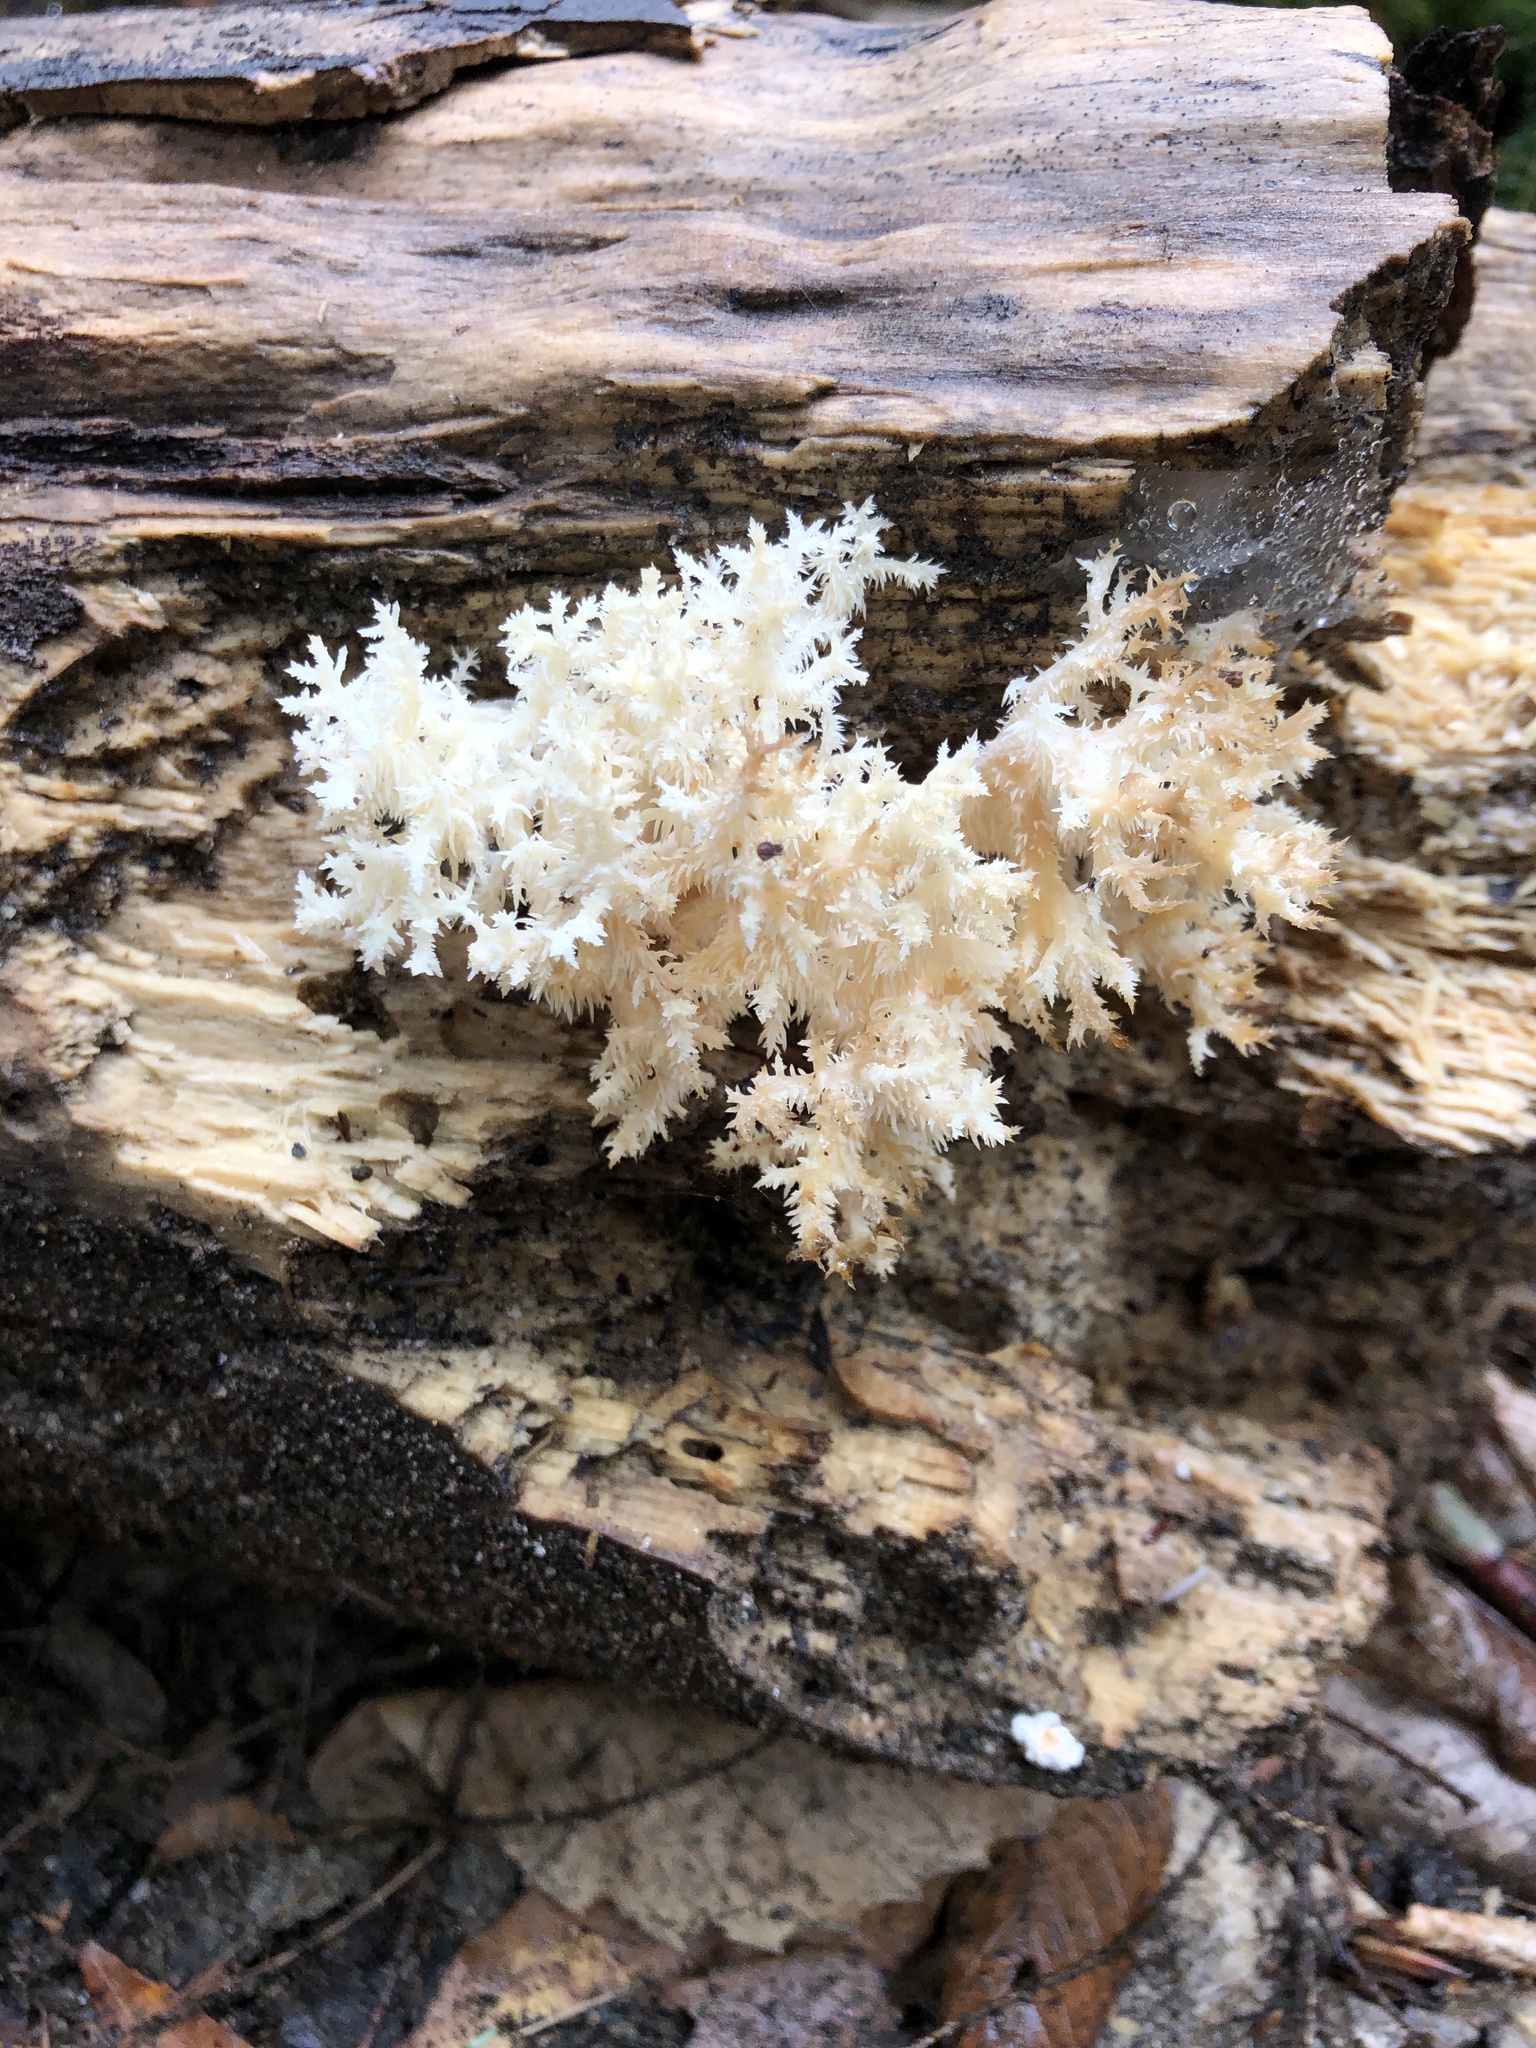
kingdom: Fungi
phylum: Basidiomycota
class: Agaricomycetes
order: Russulales
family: Hericiaceae
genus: Hericium
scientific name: Hericium coralloides
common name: Coral tooth
